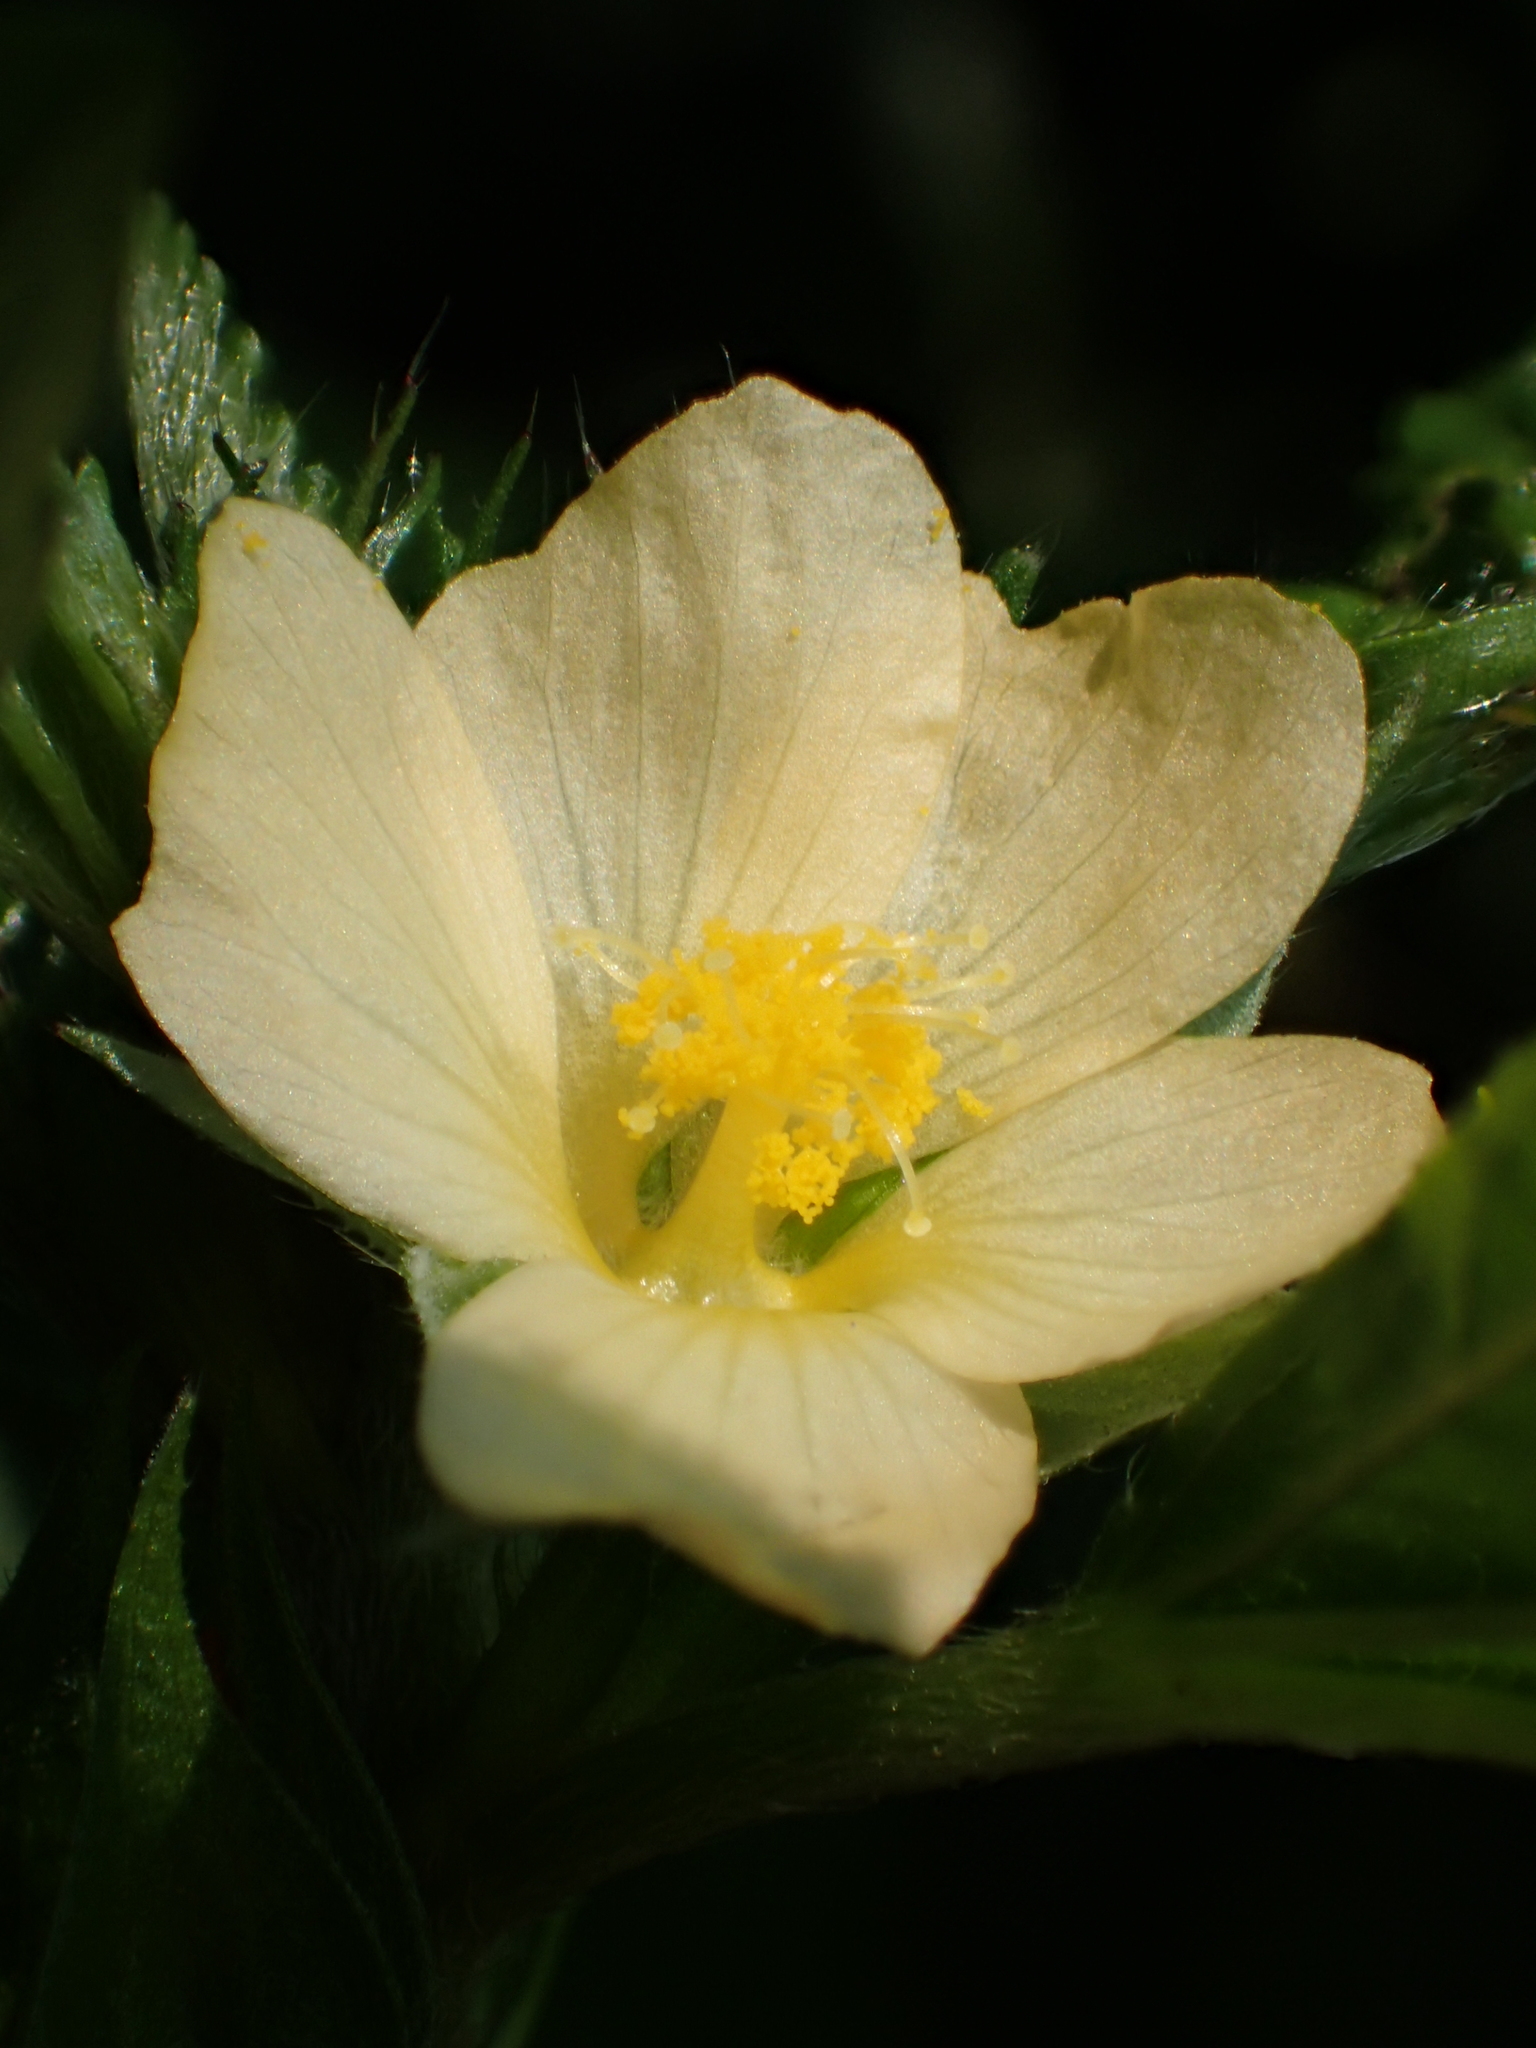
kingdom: Plantae
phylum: Tracheophyta
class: Magnoliopsida
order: Malvales
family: Malvaceae
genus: Malvastrum
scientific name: Malvastrum coromandelianum
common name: Threelobe false mallow
